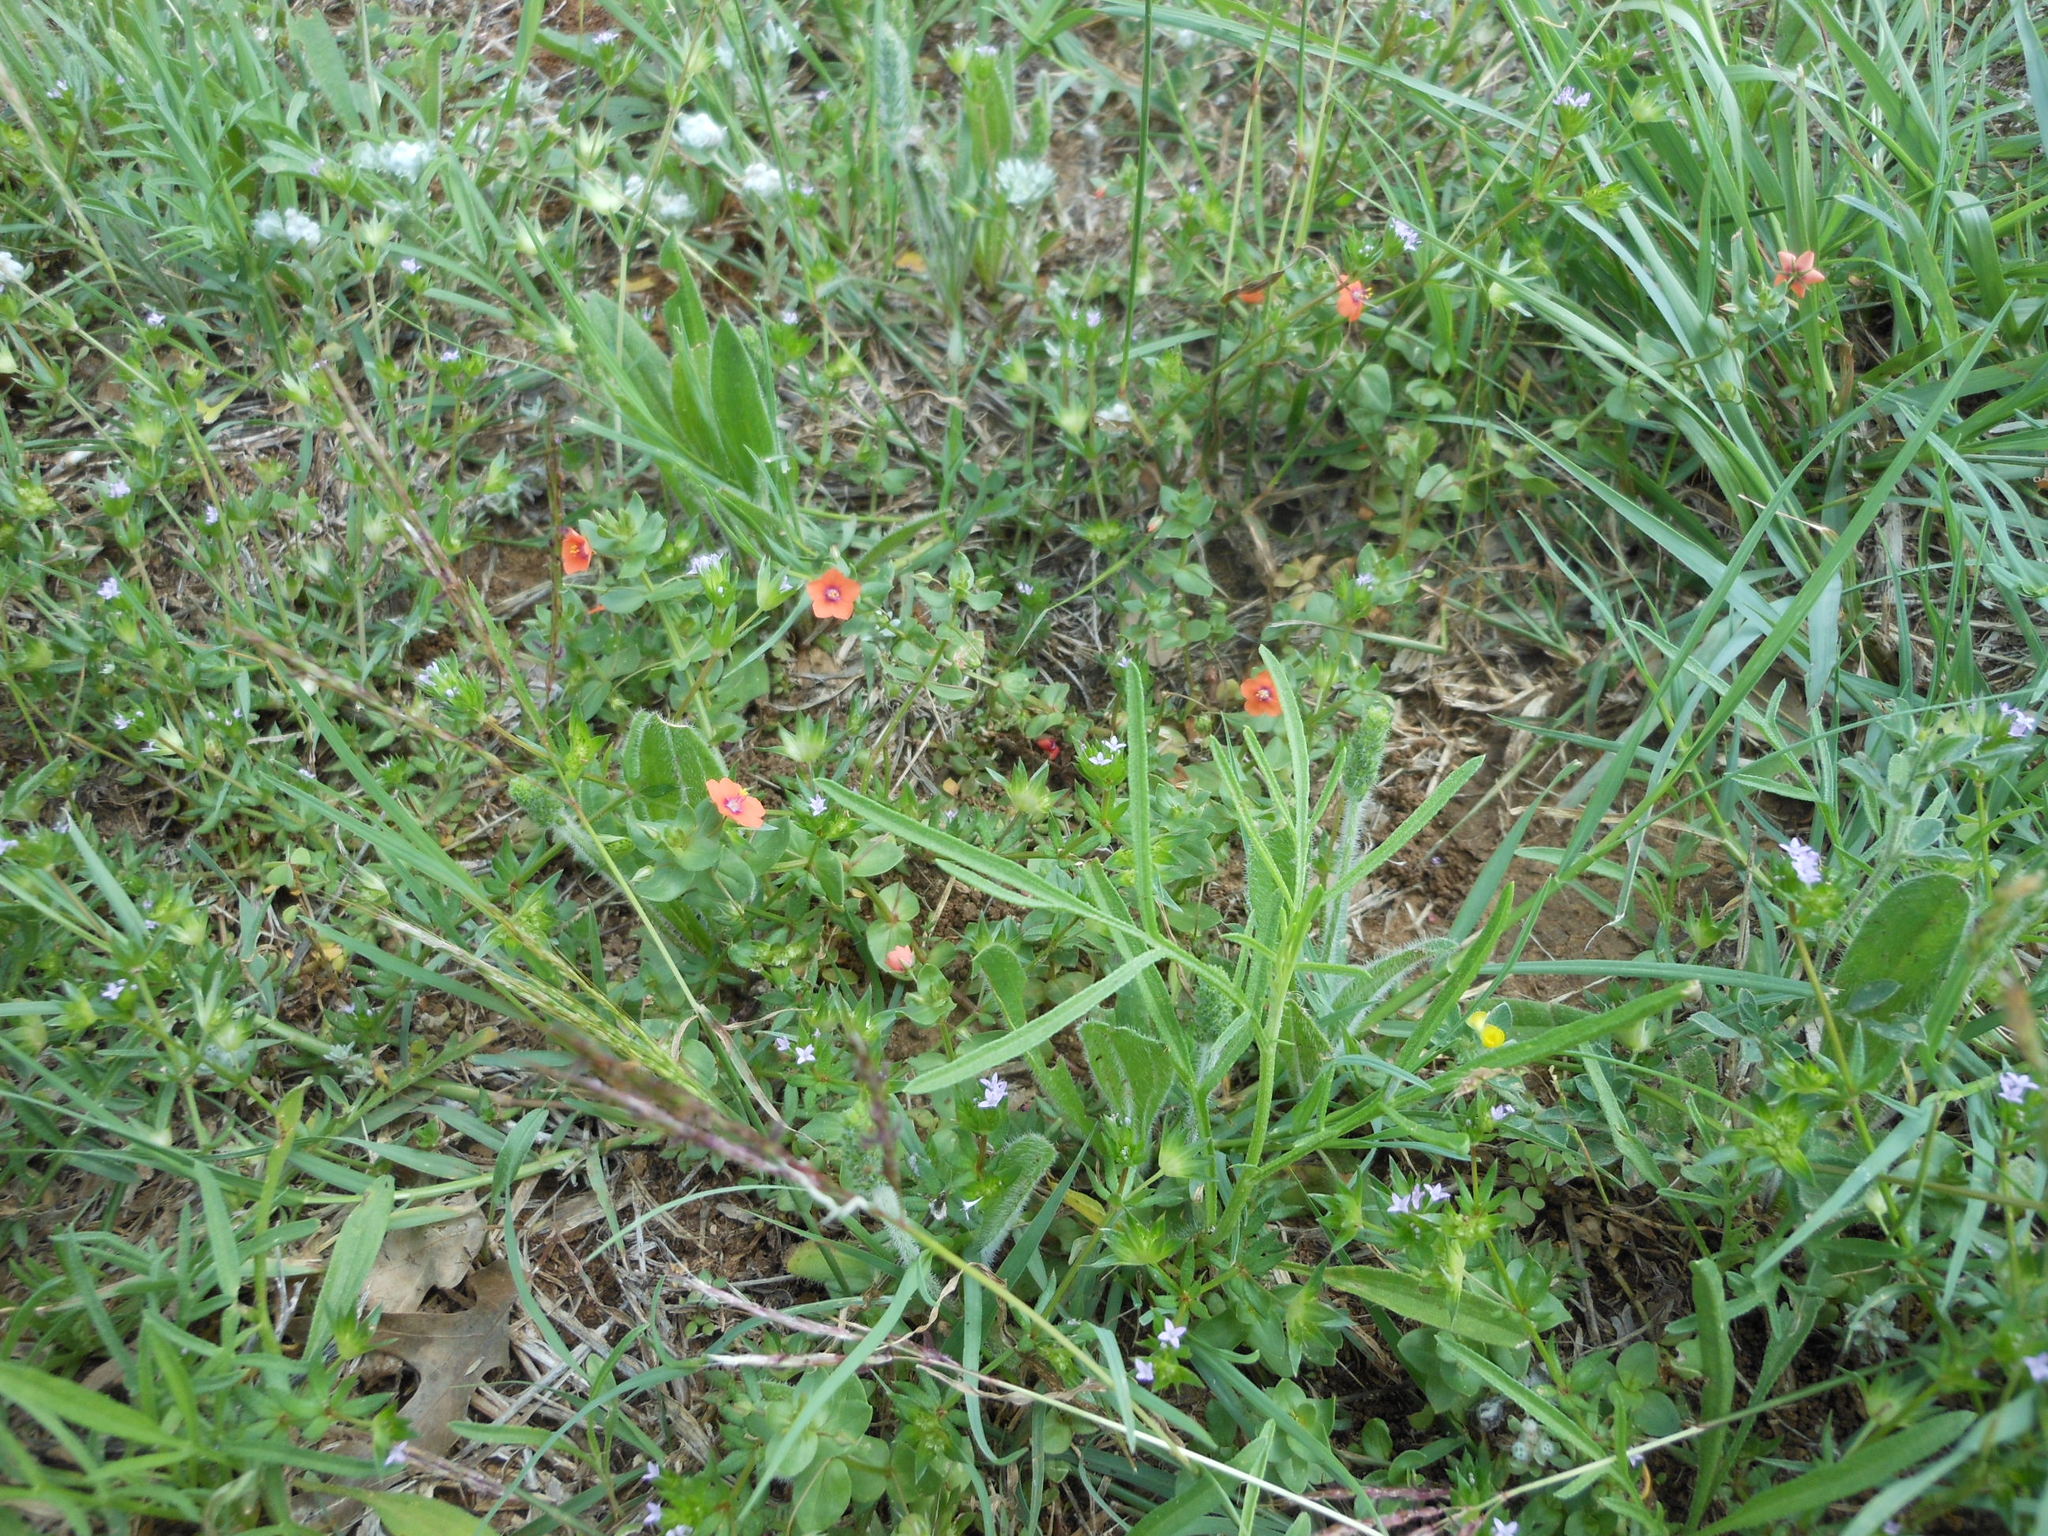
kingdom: Plantae
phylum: Tracheophyta
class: Magnoliopsida
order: Ericales
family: Primulaceae
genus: Lysimachia
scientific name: Lysimachia arvensis
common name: Scarlet pimpernel
